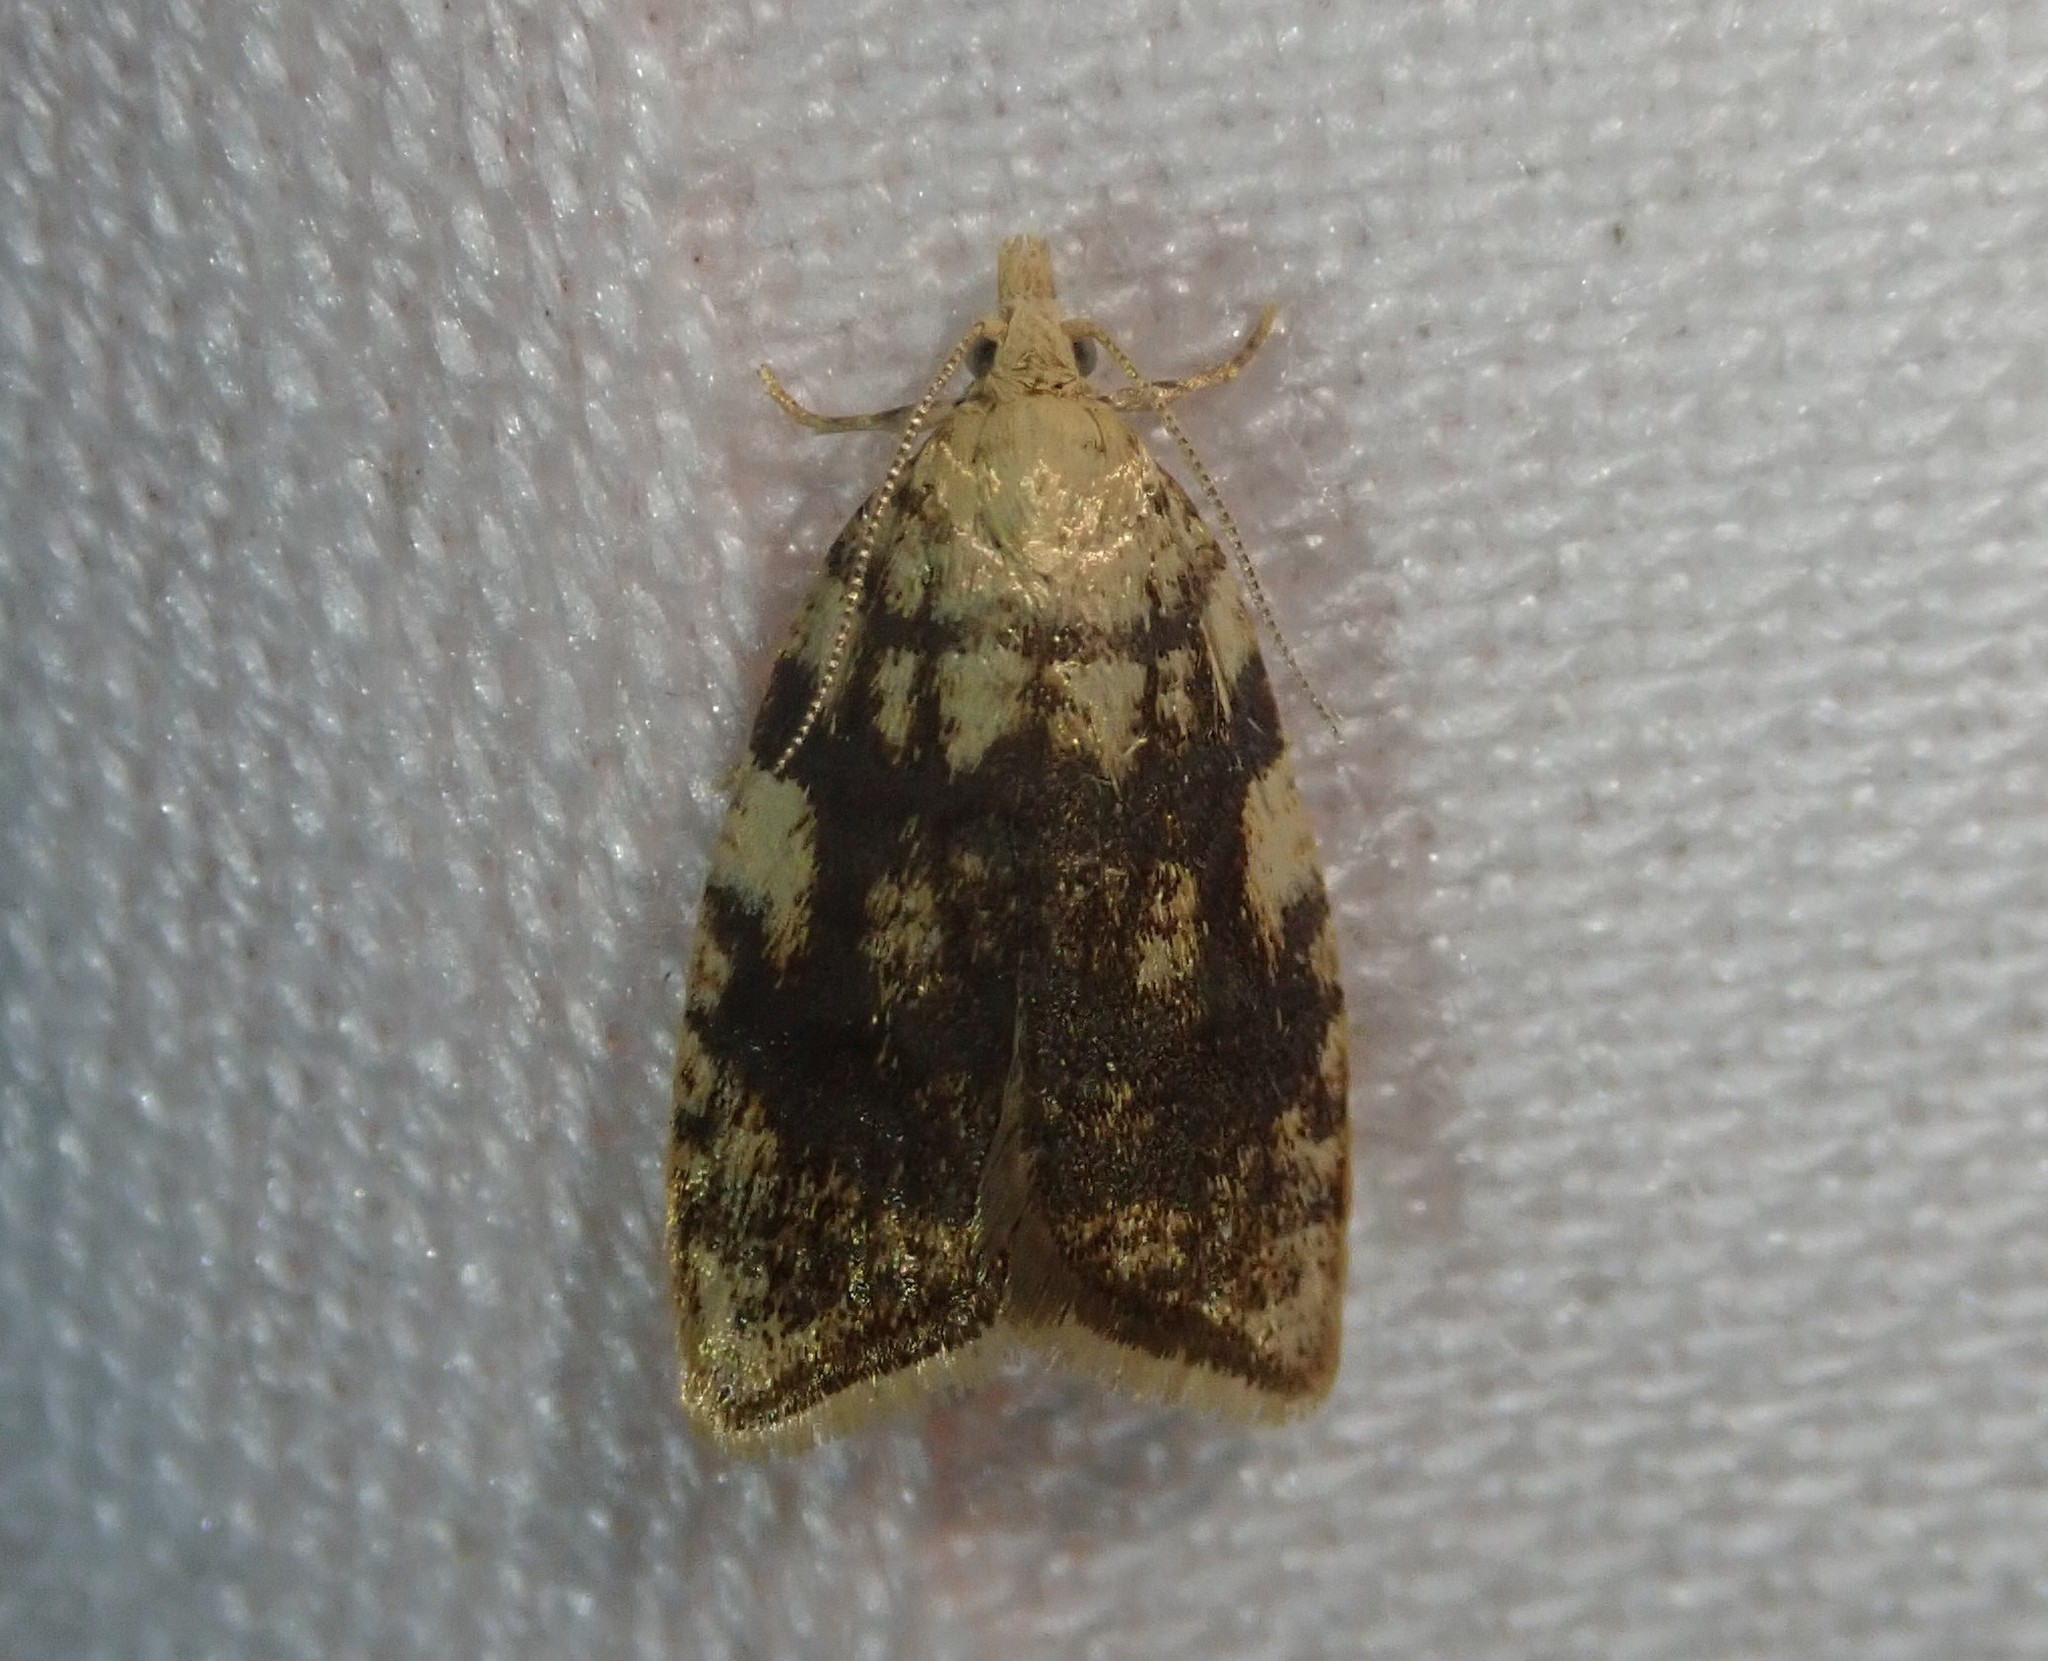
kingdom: Animalia
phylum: Arthropoda
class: Insecta
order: Lepidoptera
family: Tortricidae
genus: Aleimma
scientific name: Aleimma loeflingiana
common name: Yellow oak button
